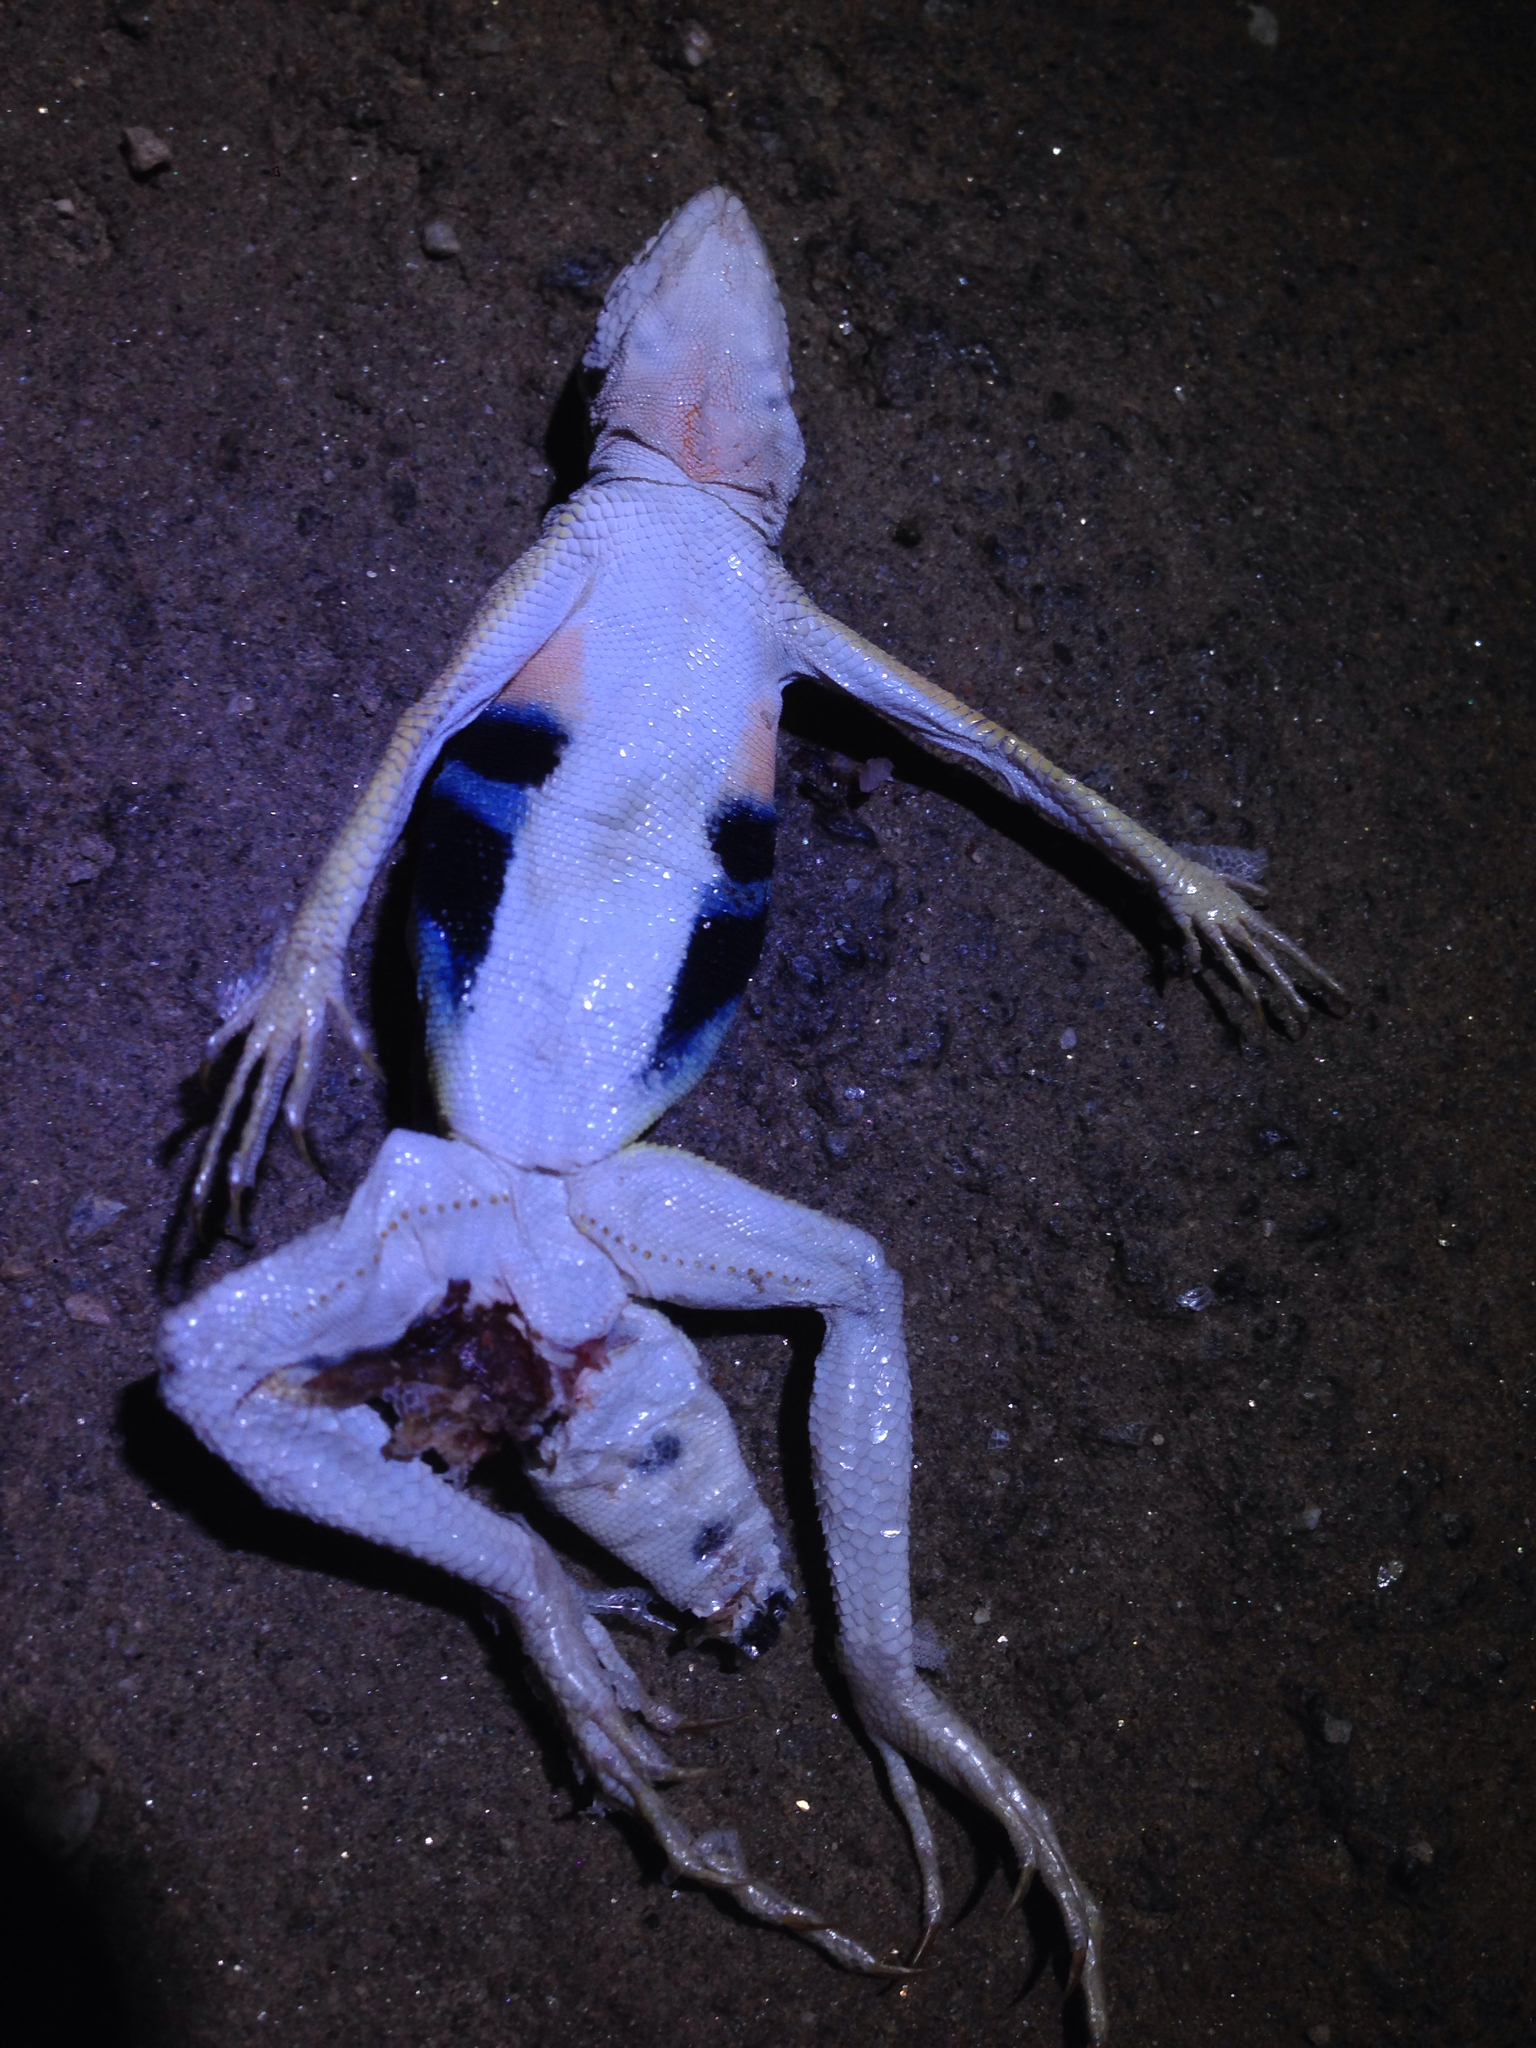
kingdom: Animalia
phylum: Chordata
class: Squamata
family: Phrynosomatidae
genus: Callisaurus
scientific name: Callisaurus draconoides
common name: Zebra-tailed lizard
